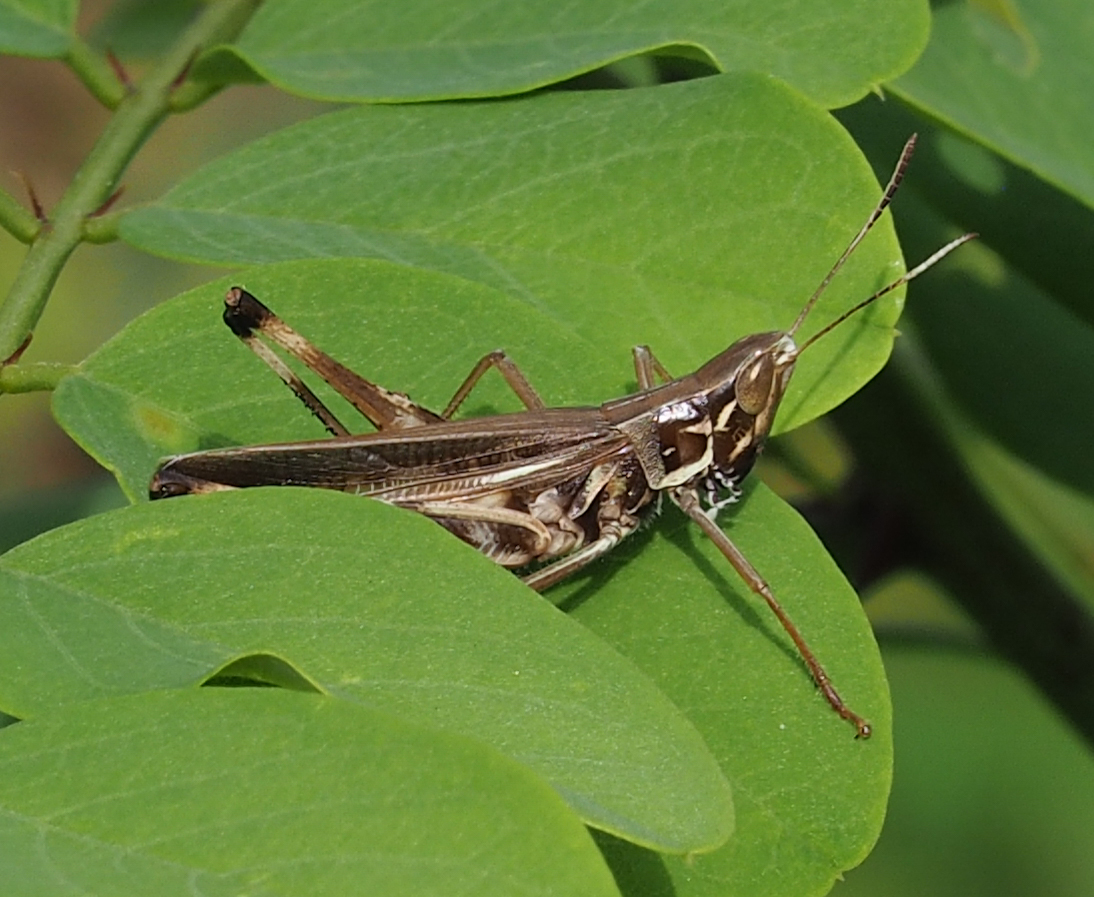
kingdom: Animalia
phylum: Arthropoda
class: Insecta
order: Orthoptera
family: Acrididae
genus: Syrbula
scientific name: Syrbula admirabilis
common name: Handsome grasshopper
